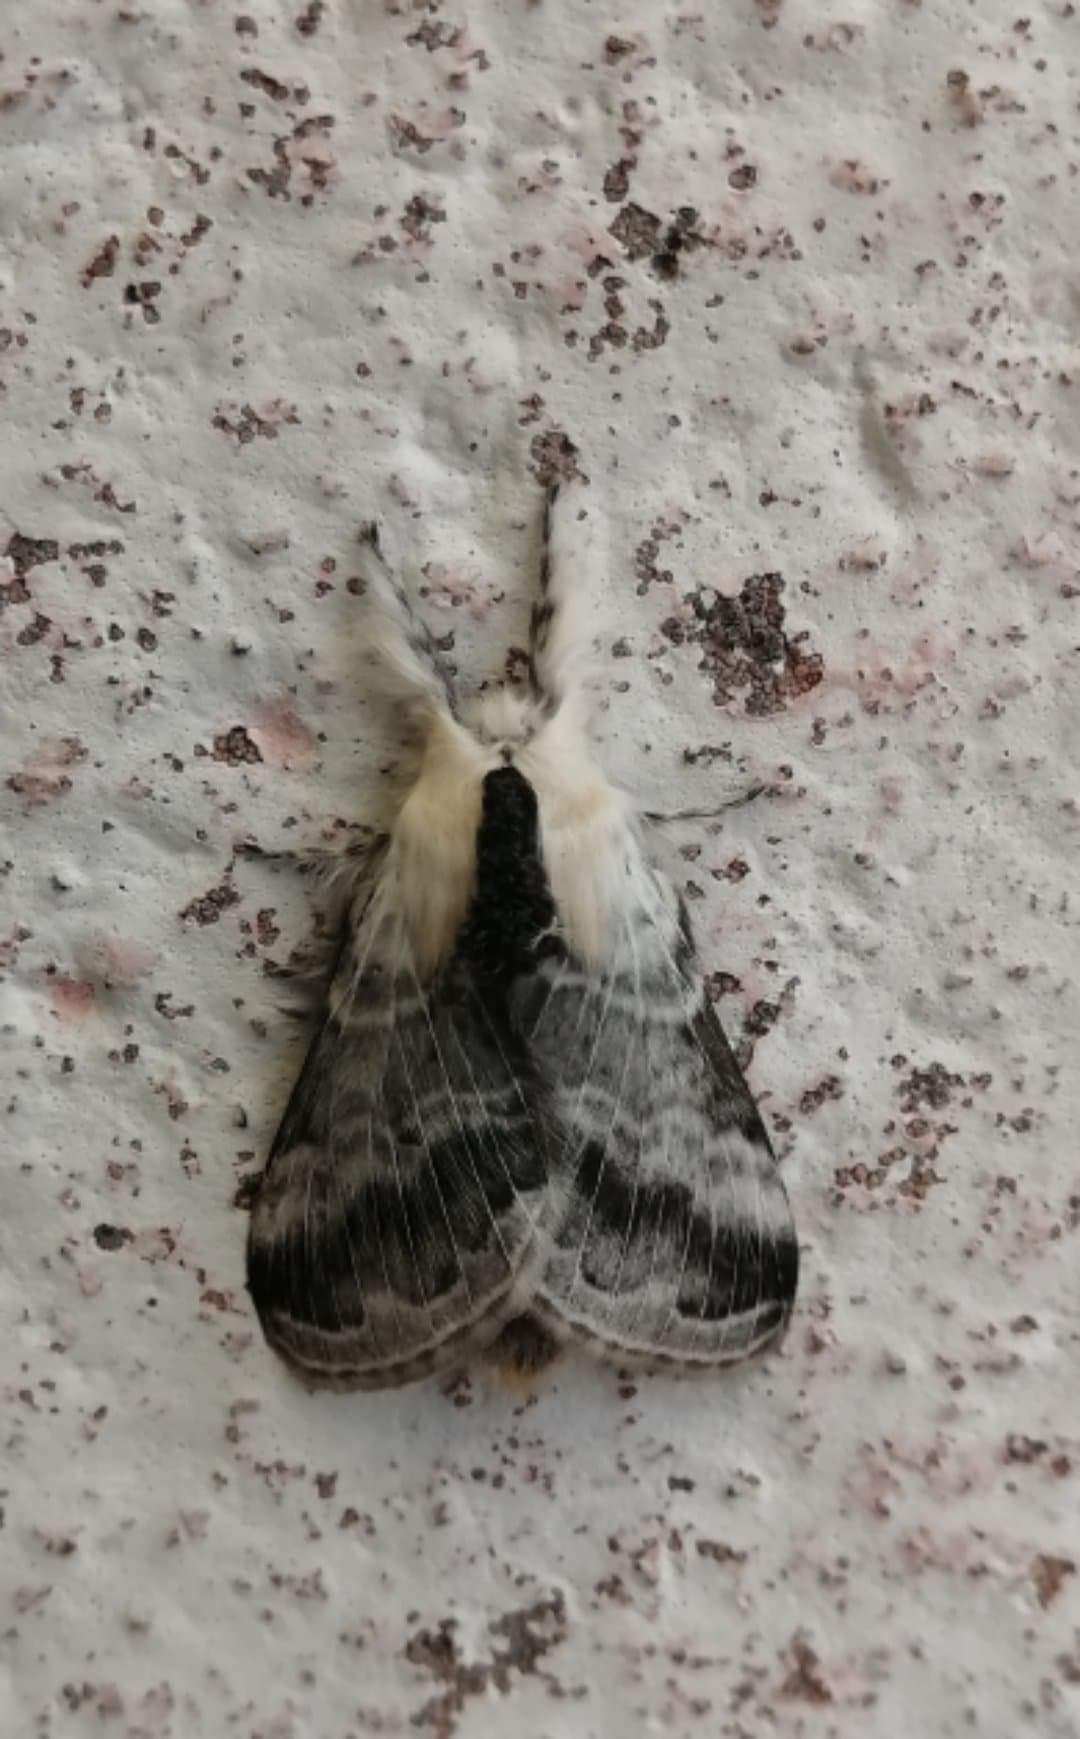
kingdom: Animalia
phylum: Arthropoda
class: Insecta
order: Lepidoptera
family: Lasiocampidae
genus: Tolype
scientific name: Tolype velleda
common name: Large tolype moth
